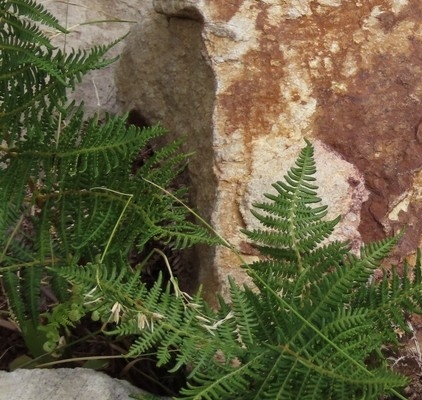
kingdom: Plantae
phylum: Tracheophyta
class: Polypodiopsida
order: Polypodiales
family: Dennstaedtiaceae
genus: Pteridium
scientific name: Pteridium aquilinum
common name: Bracken
